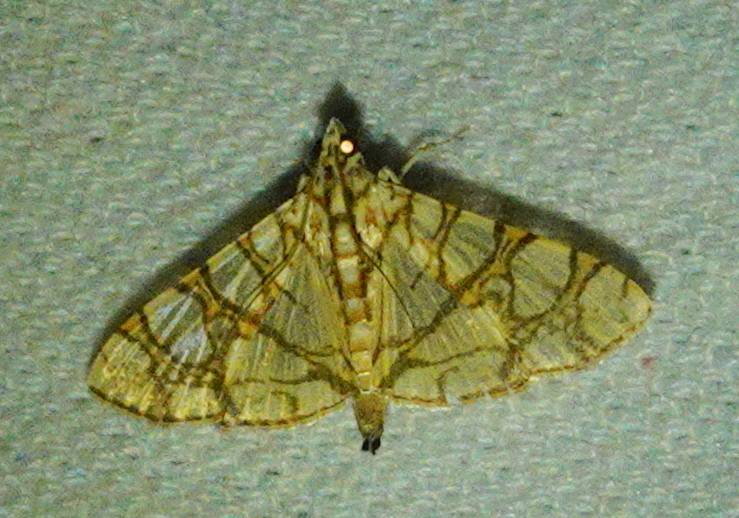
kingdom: Animalia
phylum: Arthropoda
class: Insecta
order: Lepidoptera
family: Crambidae
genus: Glyphodes
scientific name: Glyphodes caesalis
